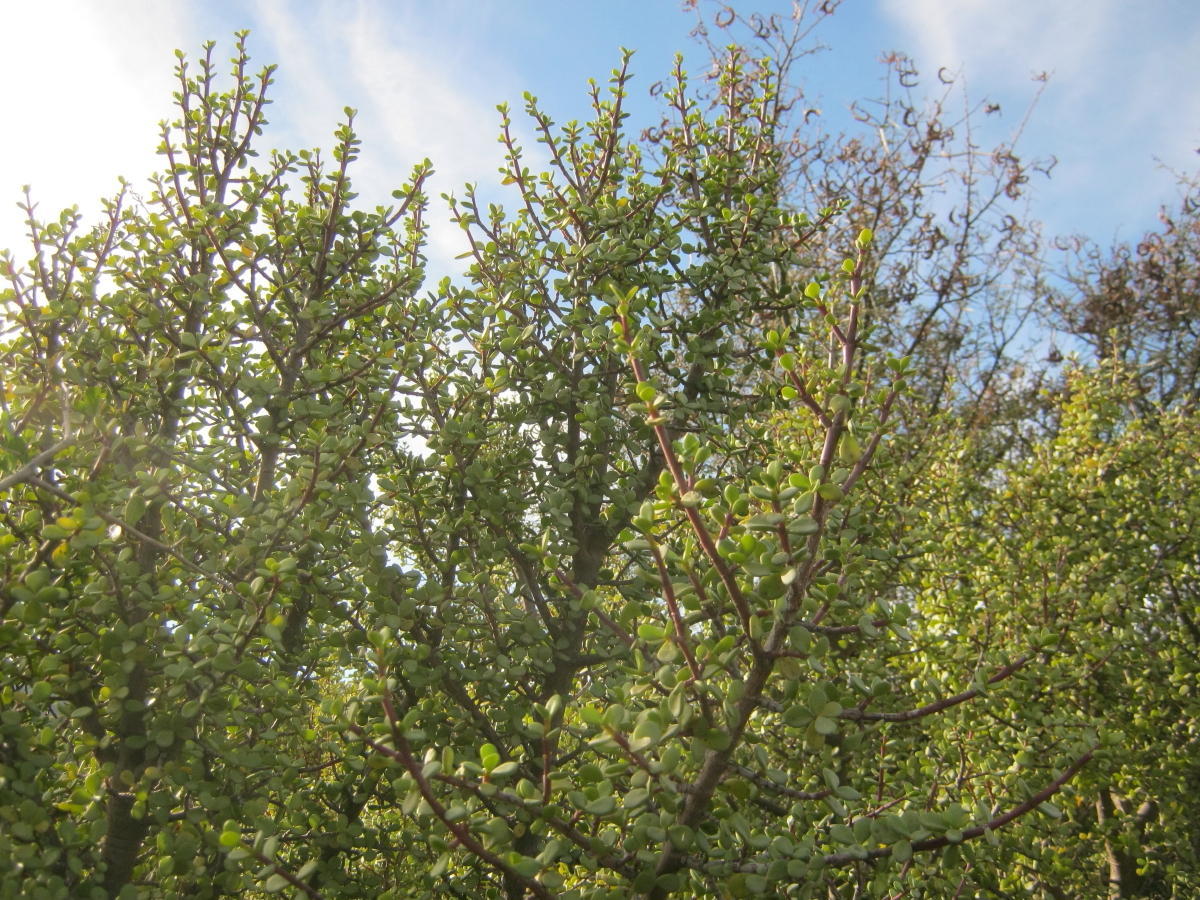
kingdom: Plantae
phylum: Tracheophyta
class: Magnoliopsida
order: Caryophyllales
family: Didiereaceae
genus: Portulacaria
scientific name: Portulacaria afra
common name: Elephant-bush
